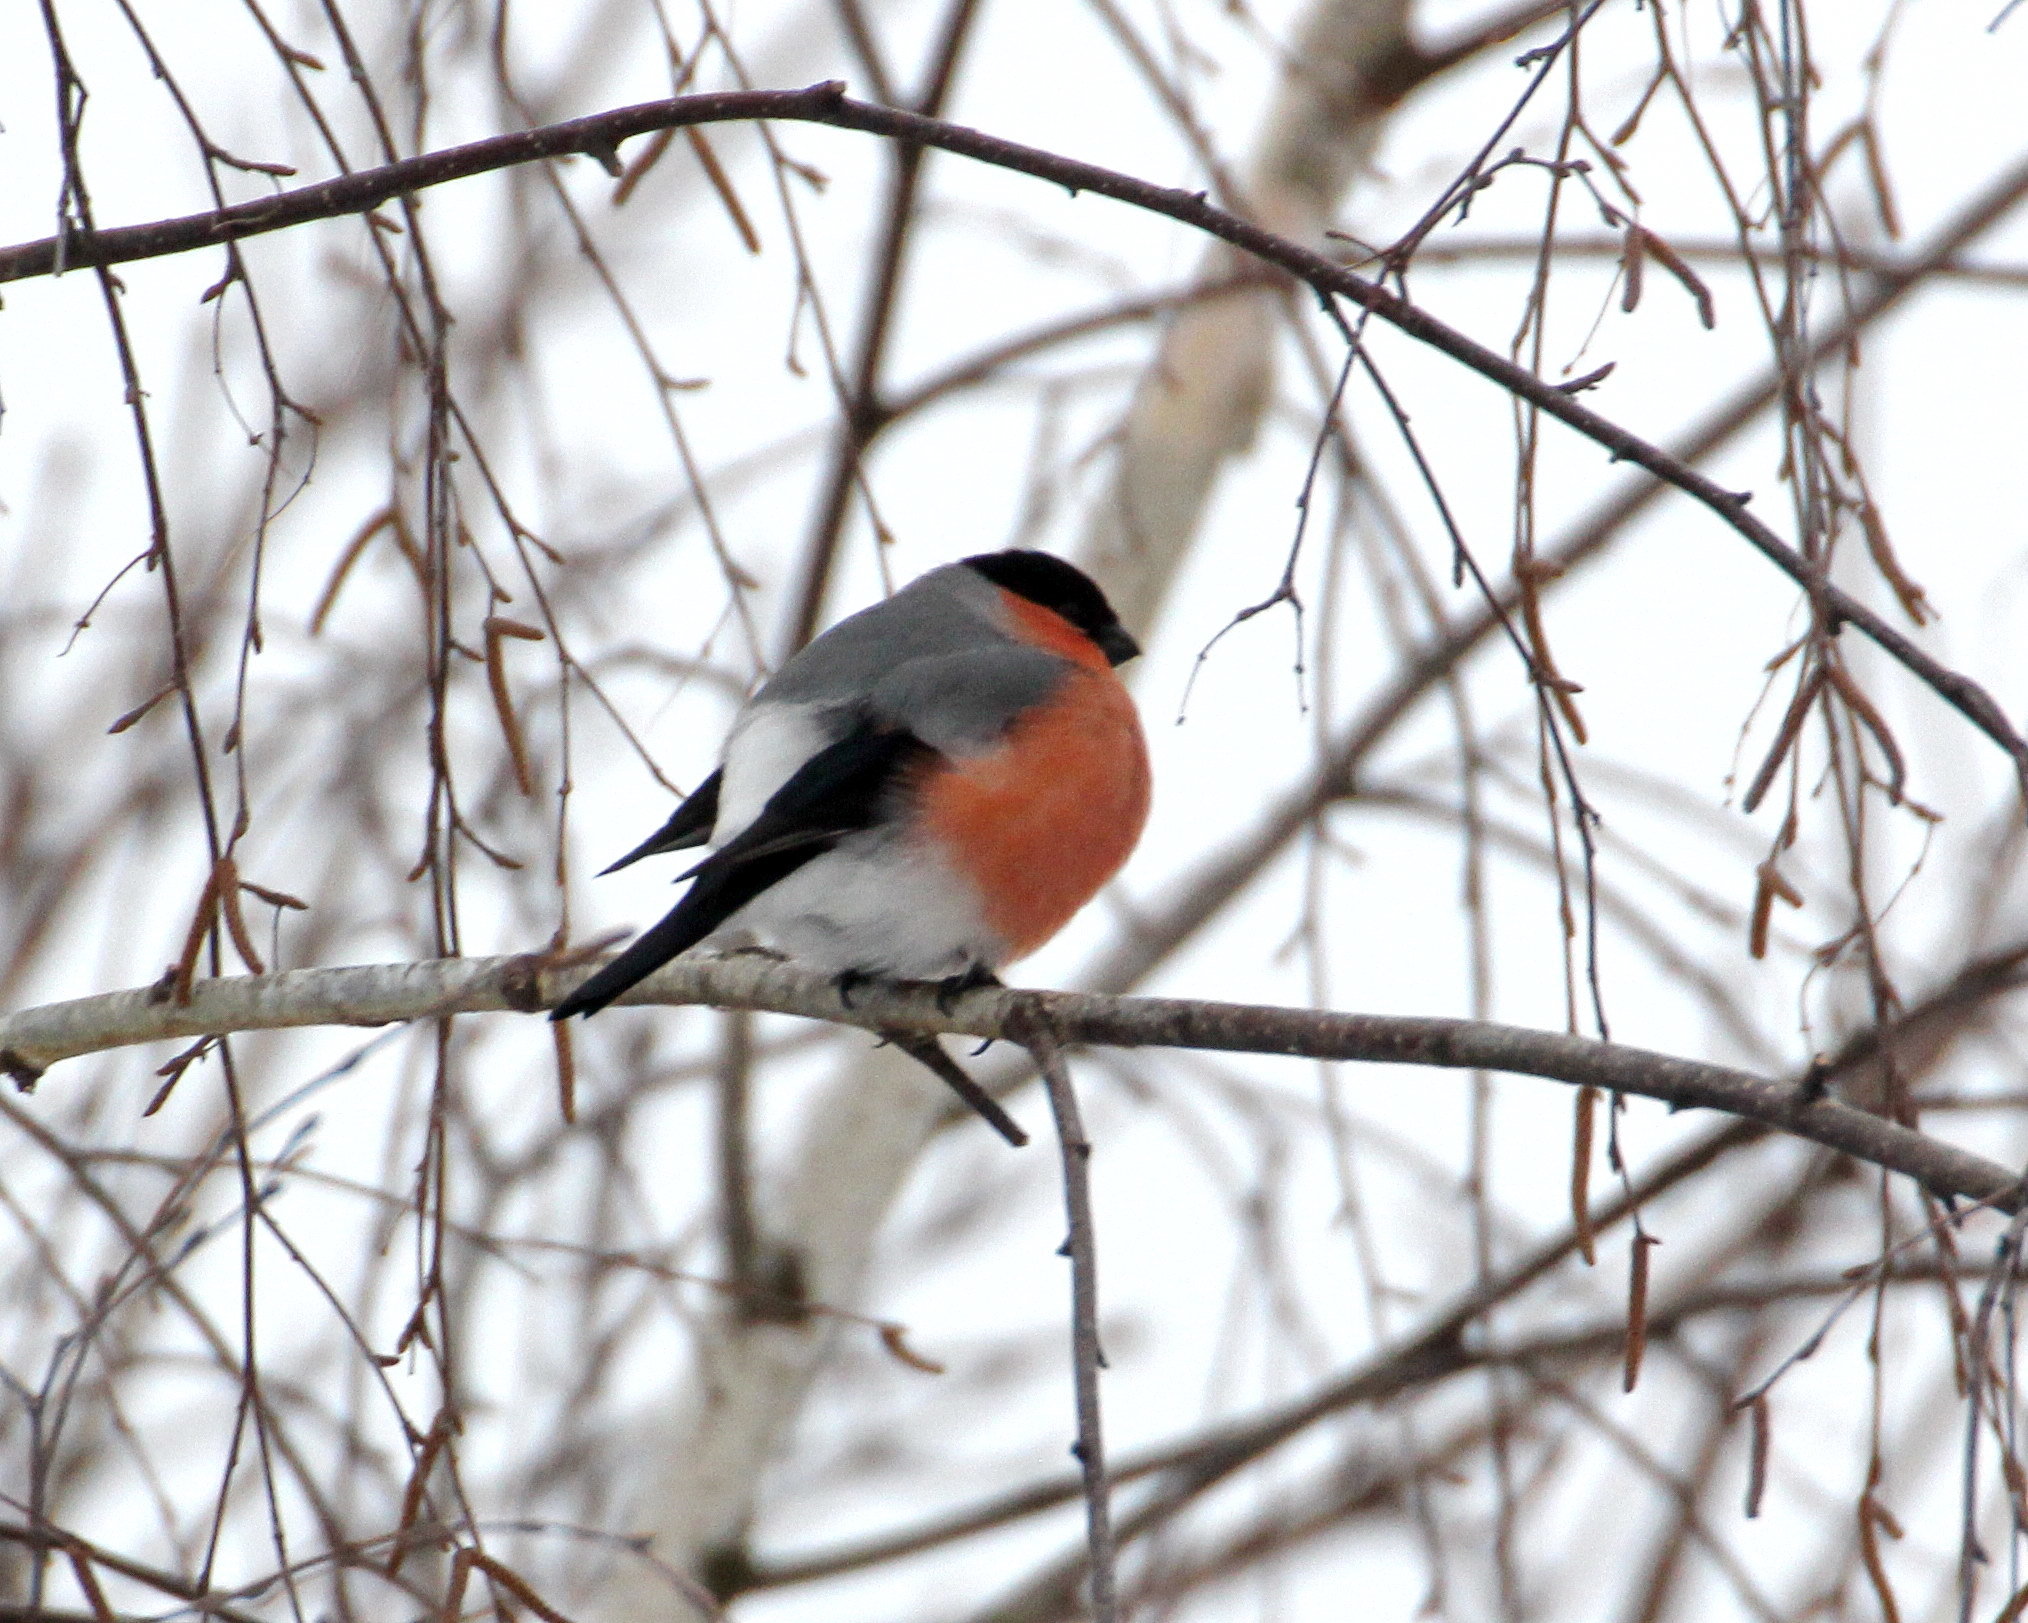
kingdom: Animalia
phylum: Chordata
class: Aves
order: Passeriformes
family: Fringillidae
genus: Pyrrhula
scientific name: Pyrrhula pyrrhula
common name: Eurasian bullfinch
